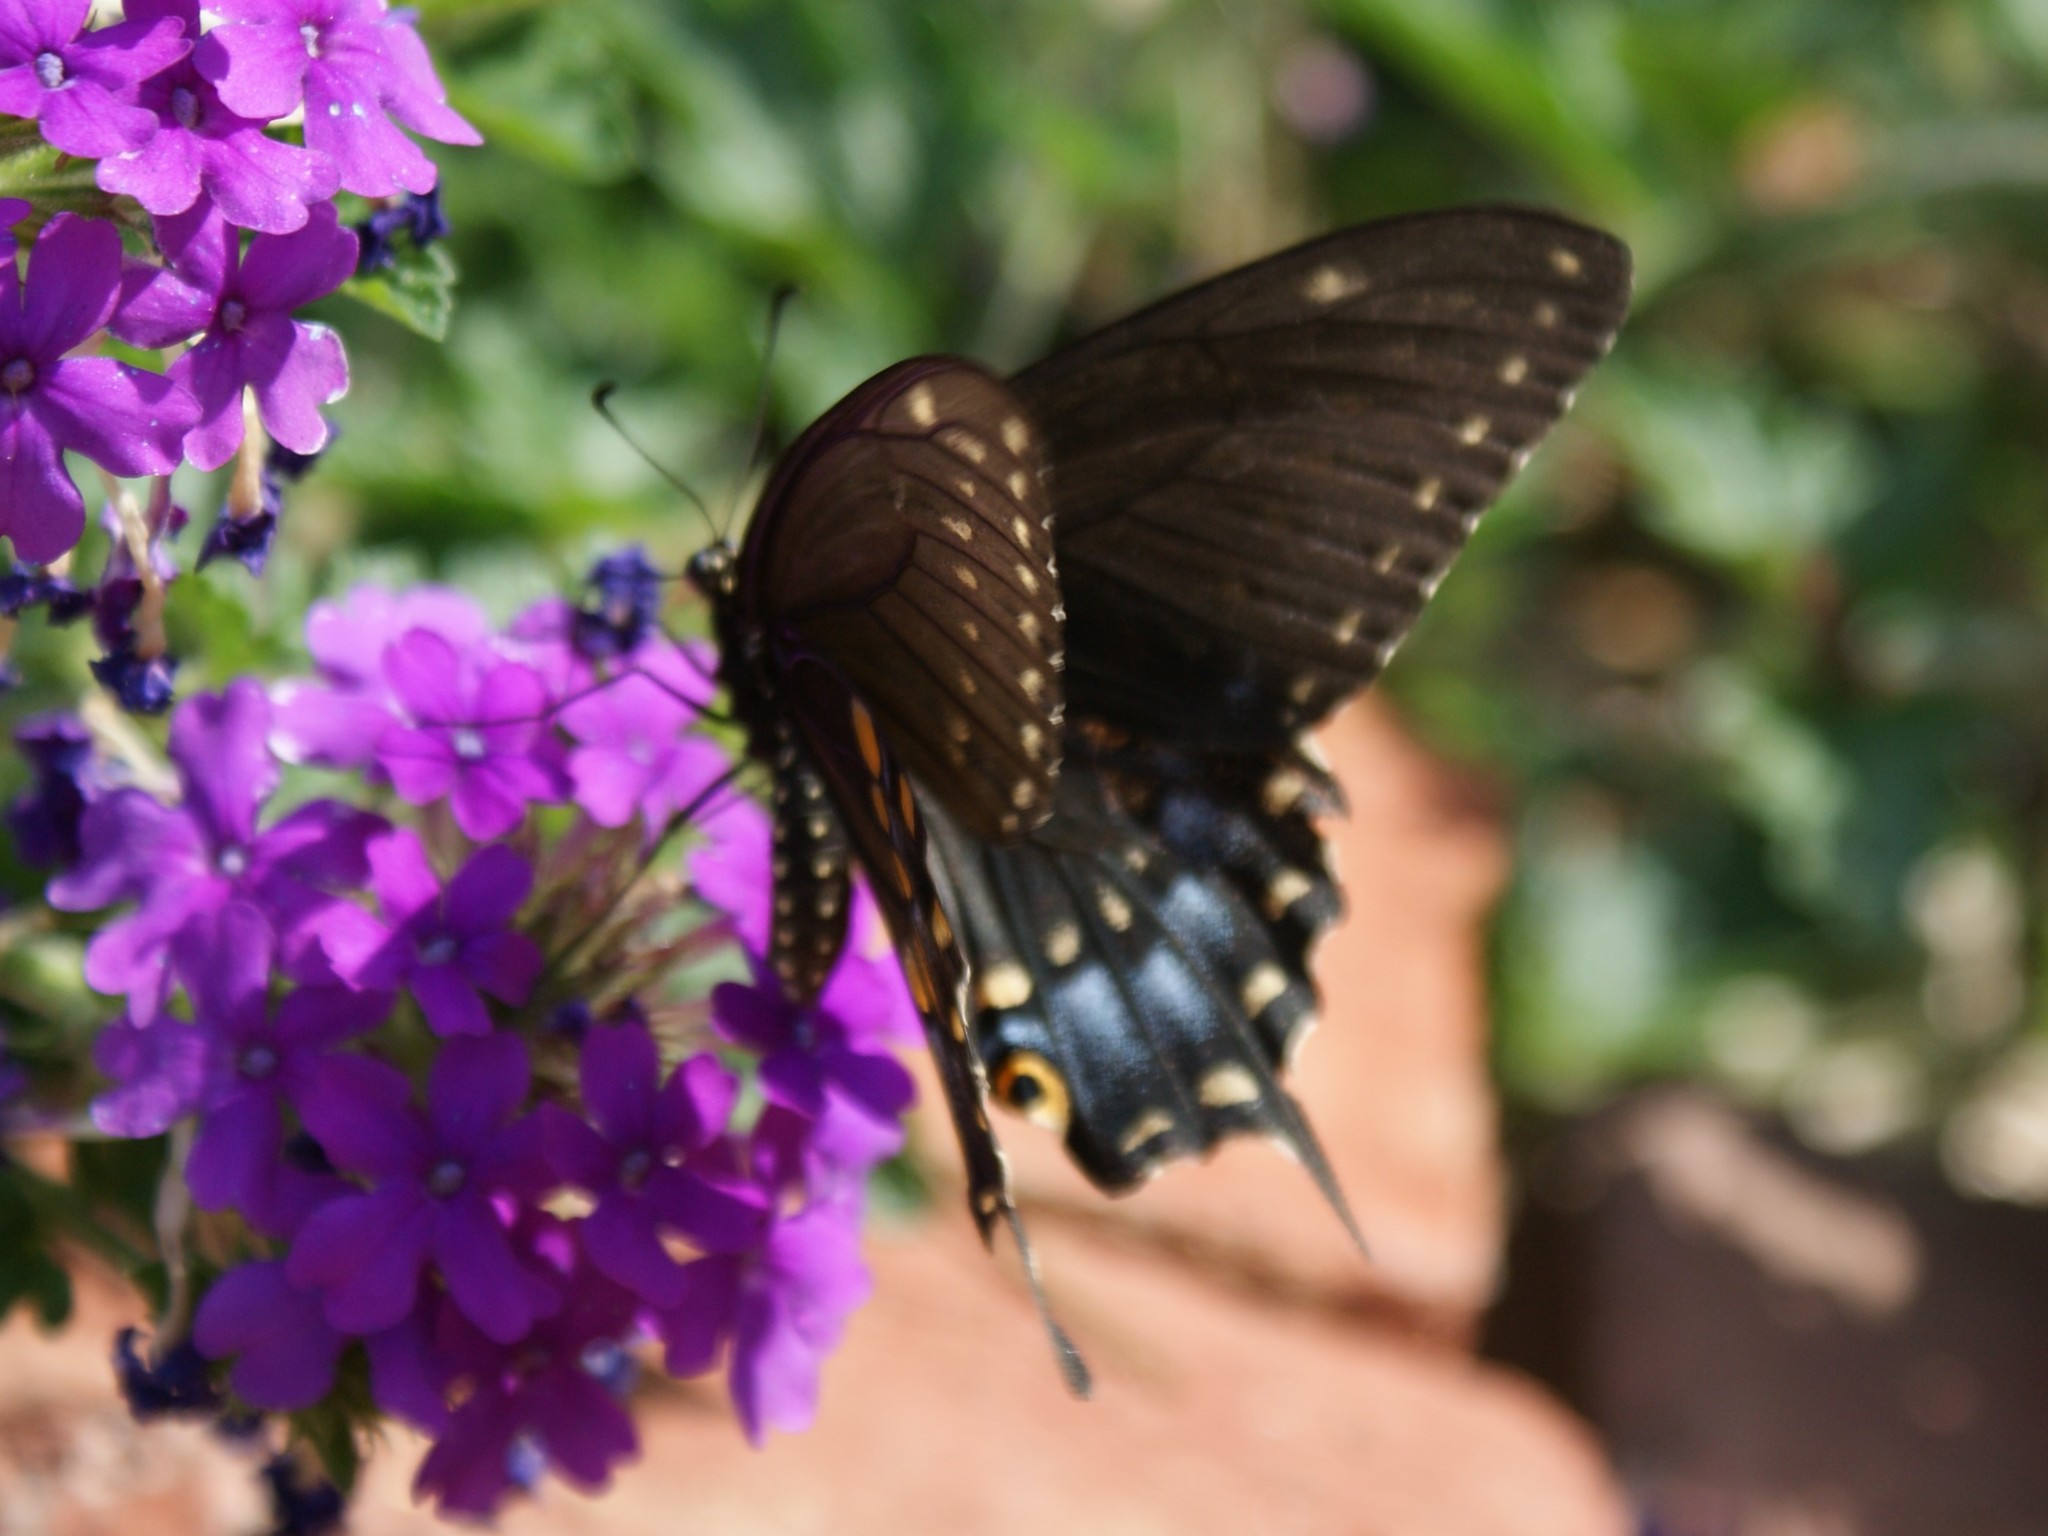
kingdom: Animalia
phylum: Arthropoda
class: Insecta
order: Lepidoptera
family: Papilionidae
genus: Papilio
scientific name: Papilio polyxenes
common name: Black swallowtail
